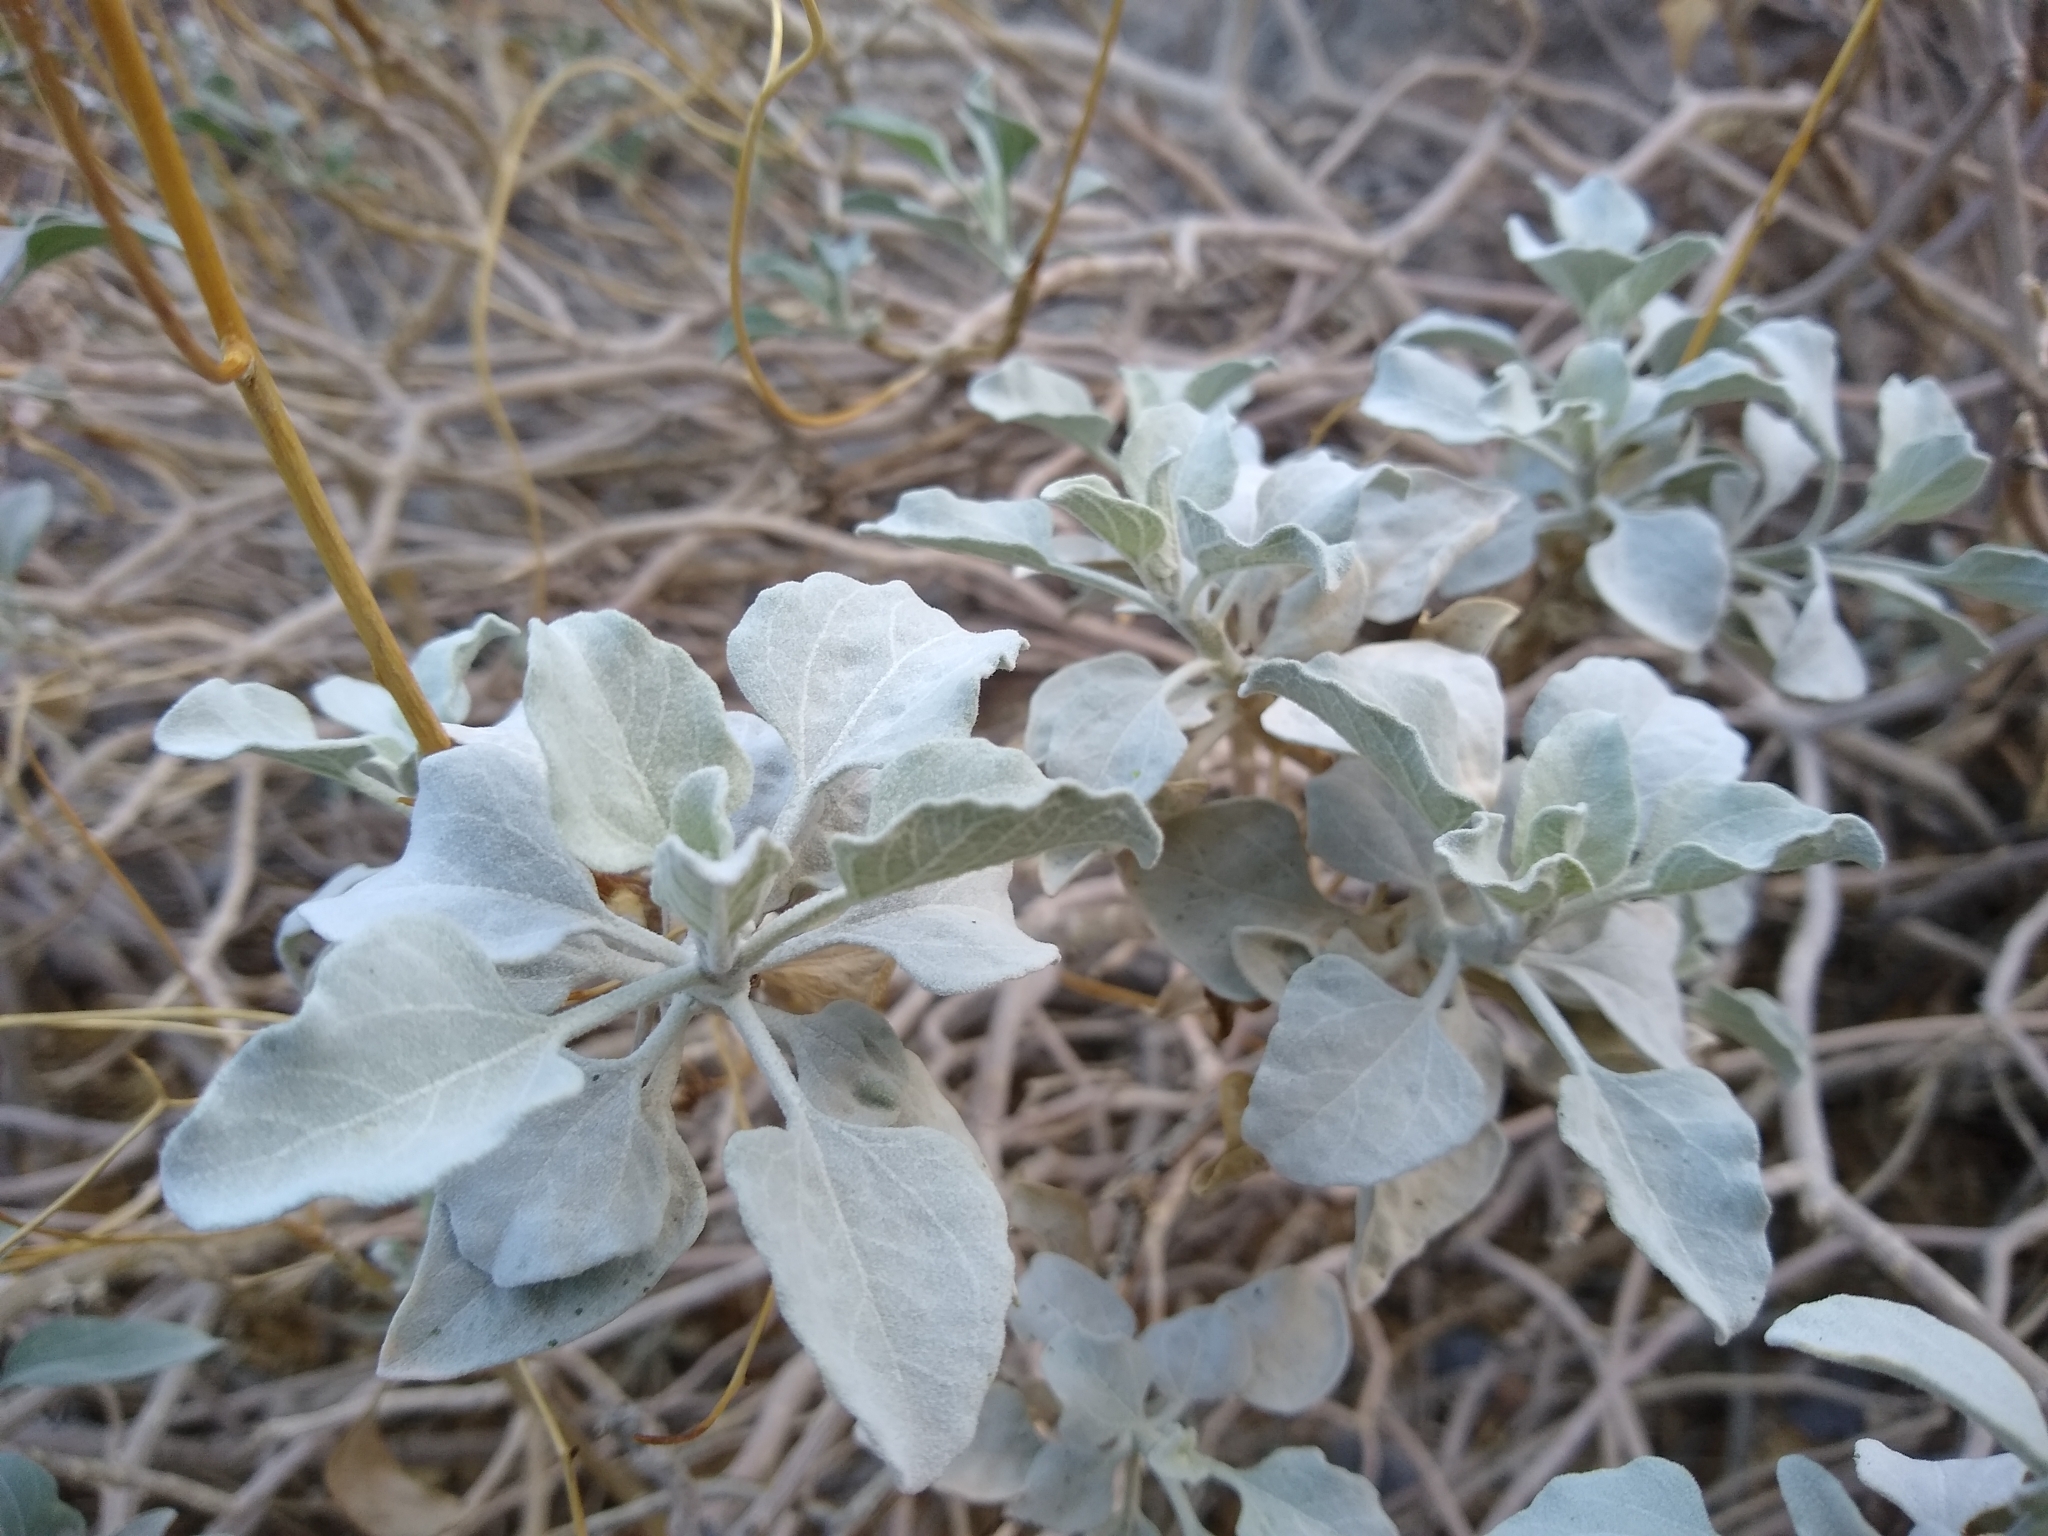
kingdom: Plantae
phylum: Tracheophyta
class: Magnoliopsida
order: Asterales
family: Asteraceae
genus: Encelia
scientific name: Encelia farinosa
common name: Brittlebush
